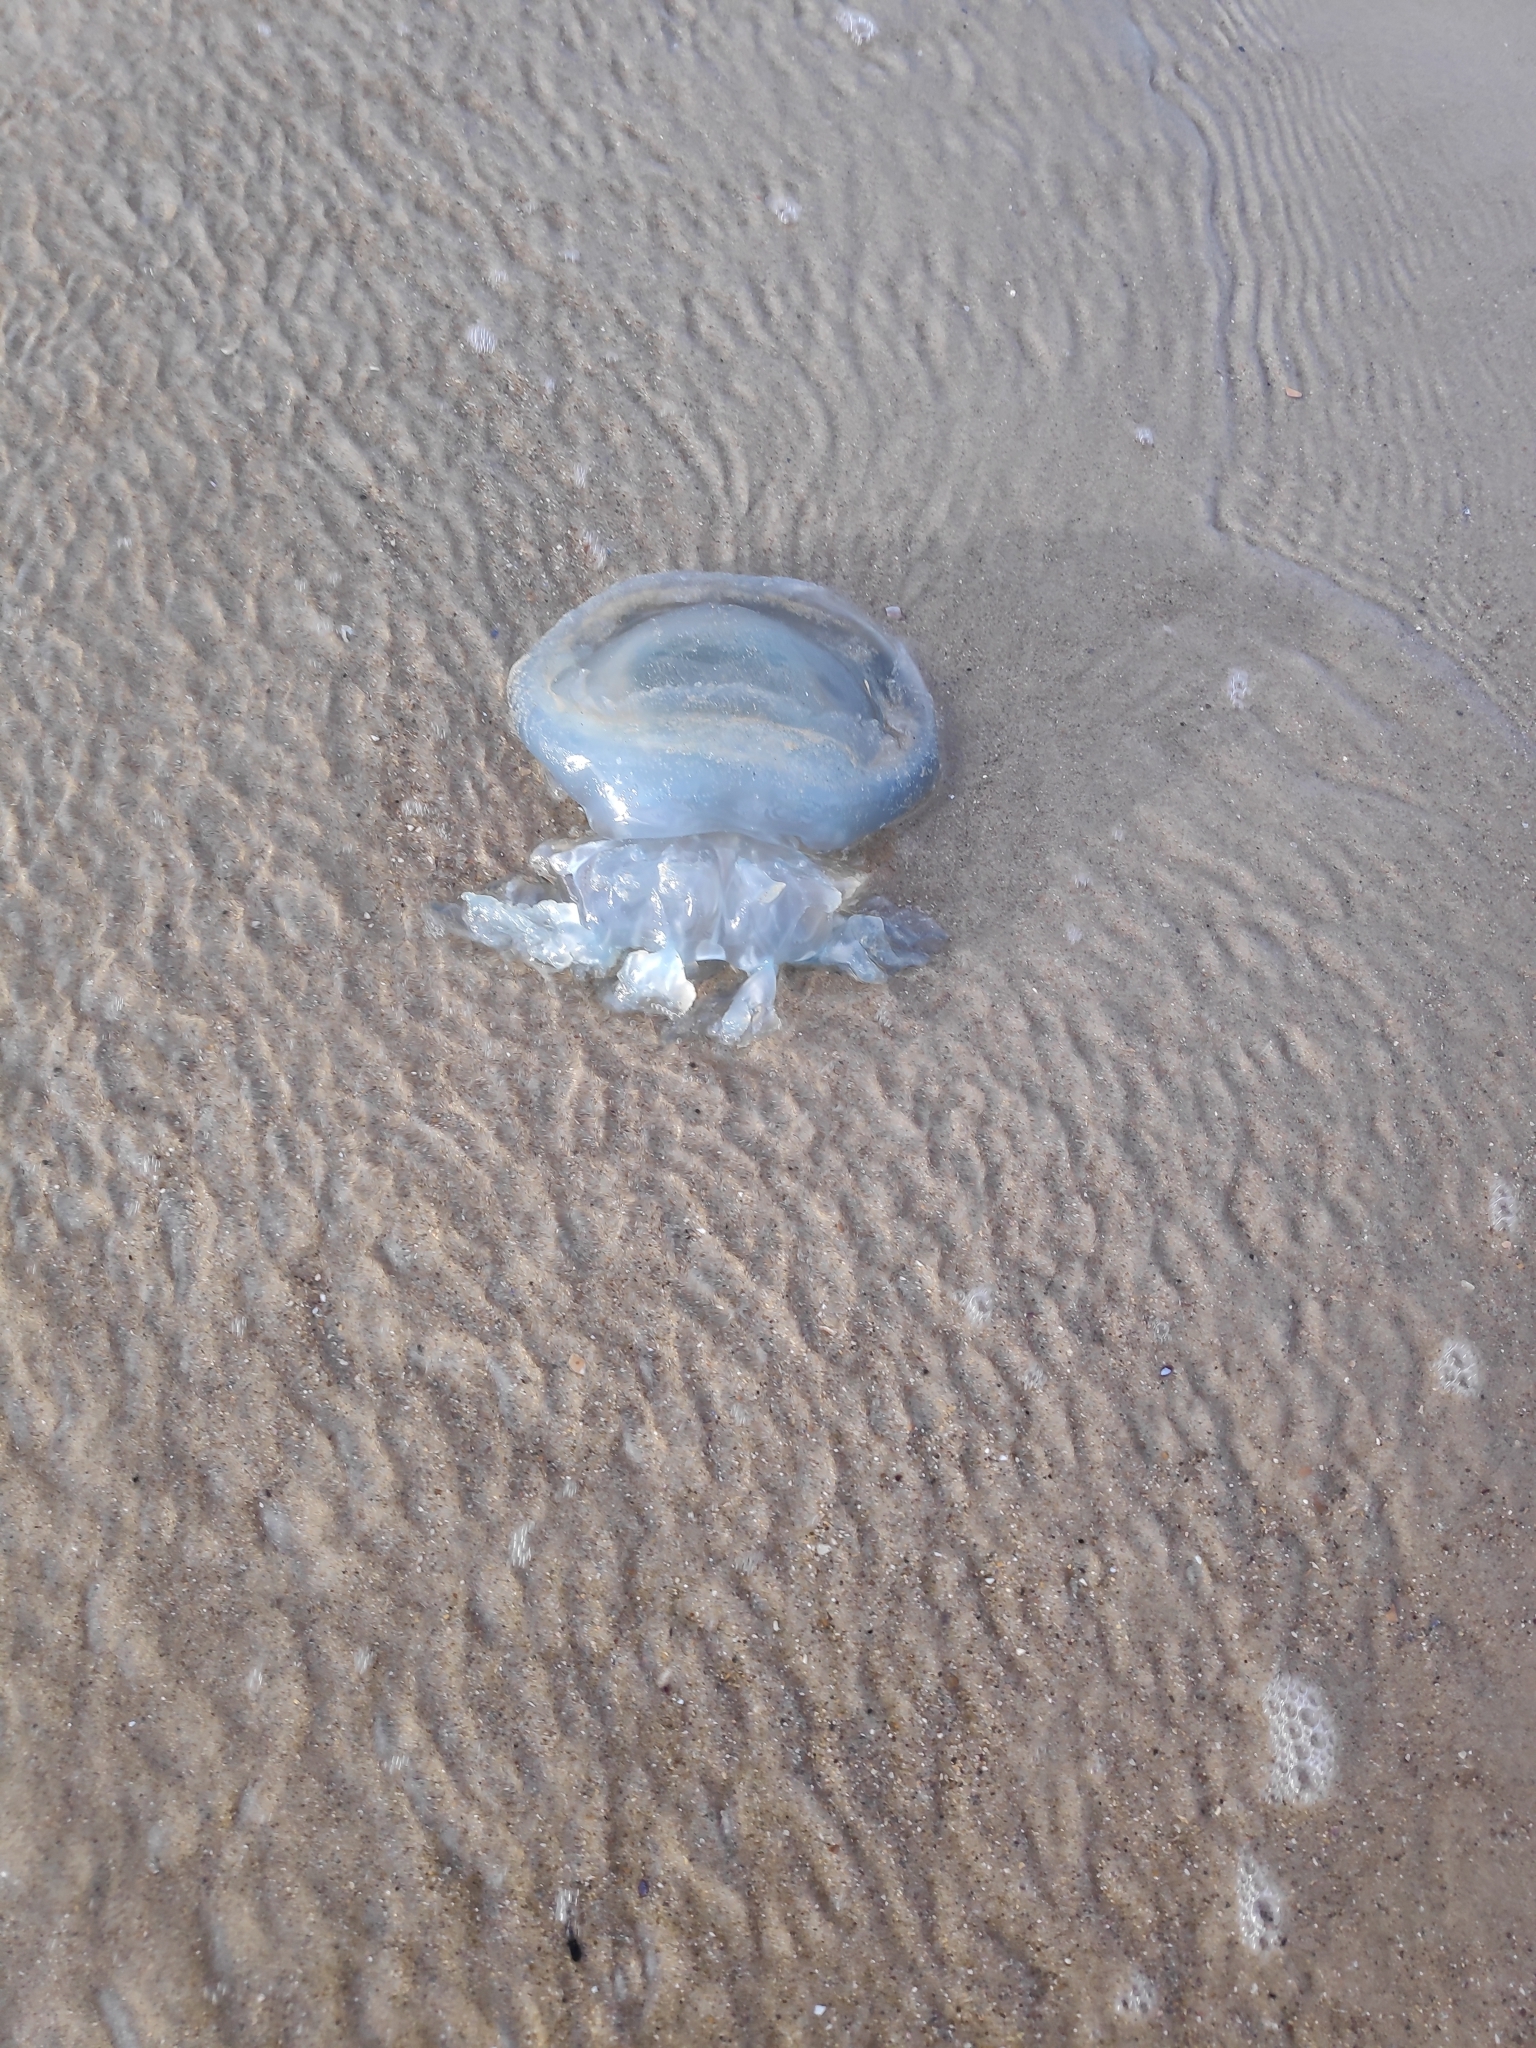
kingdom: Animalia
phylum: Cnidaria
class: Scyphozoa
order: Rhizostomeae
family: Rhizostomatidae
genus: Rhizostoma
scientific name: Rhizostoma octopus
